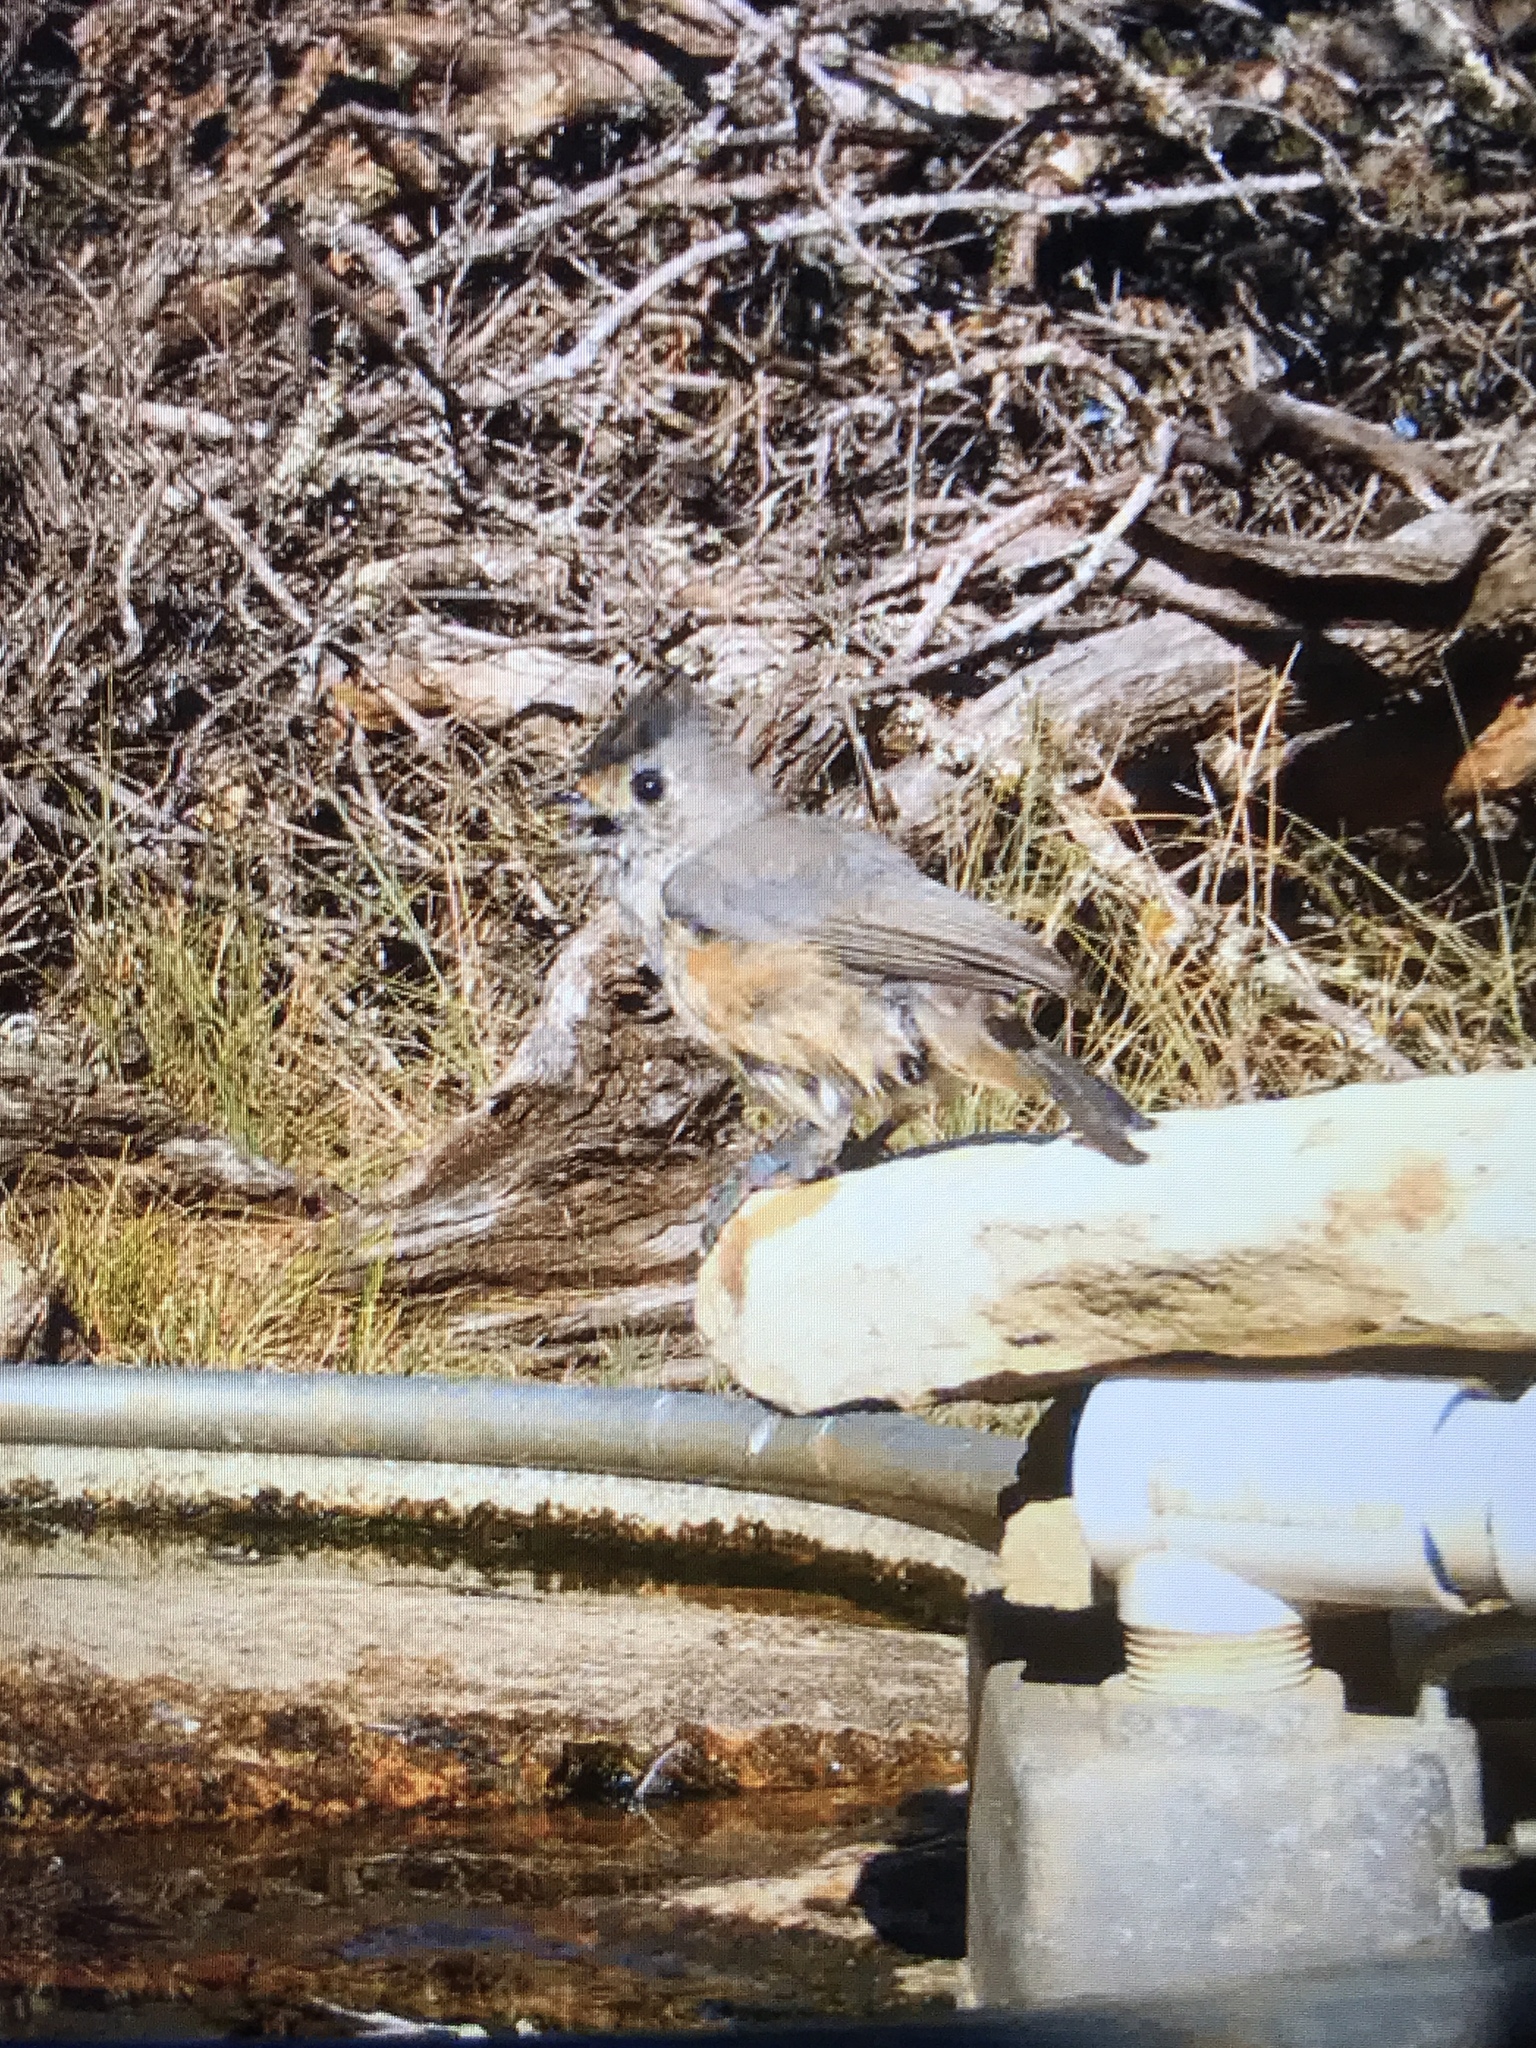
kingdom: Animalia
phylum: Chordata
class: Aves
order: Passeriformes
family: Paridae
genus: Baeolophus
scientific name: Baeolophus atricristatus
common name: Black-crested titmouse
